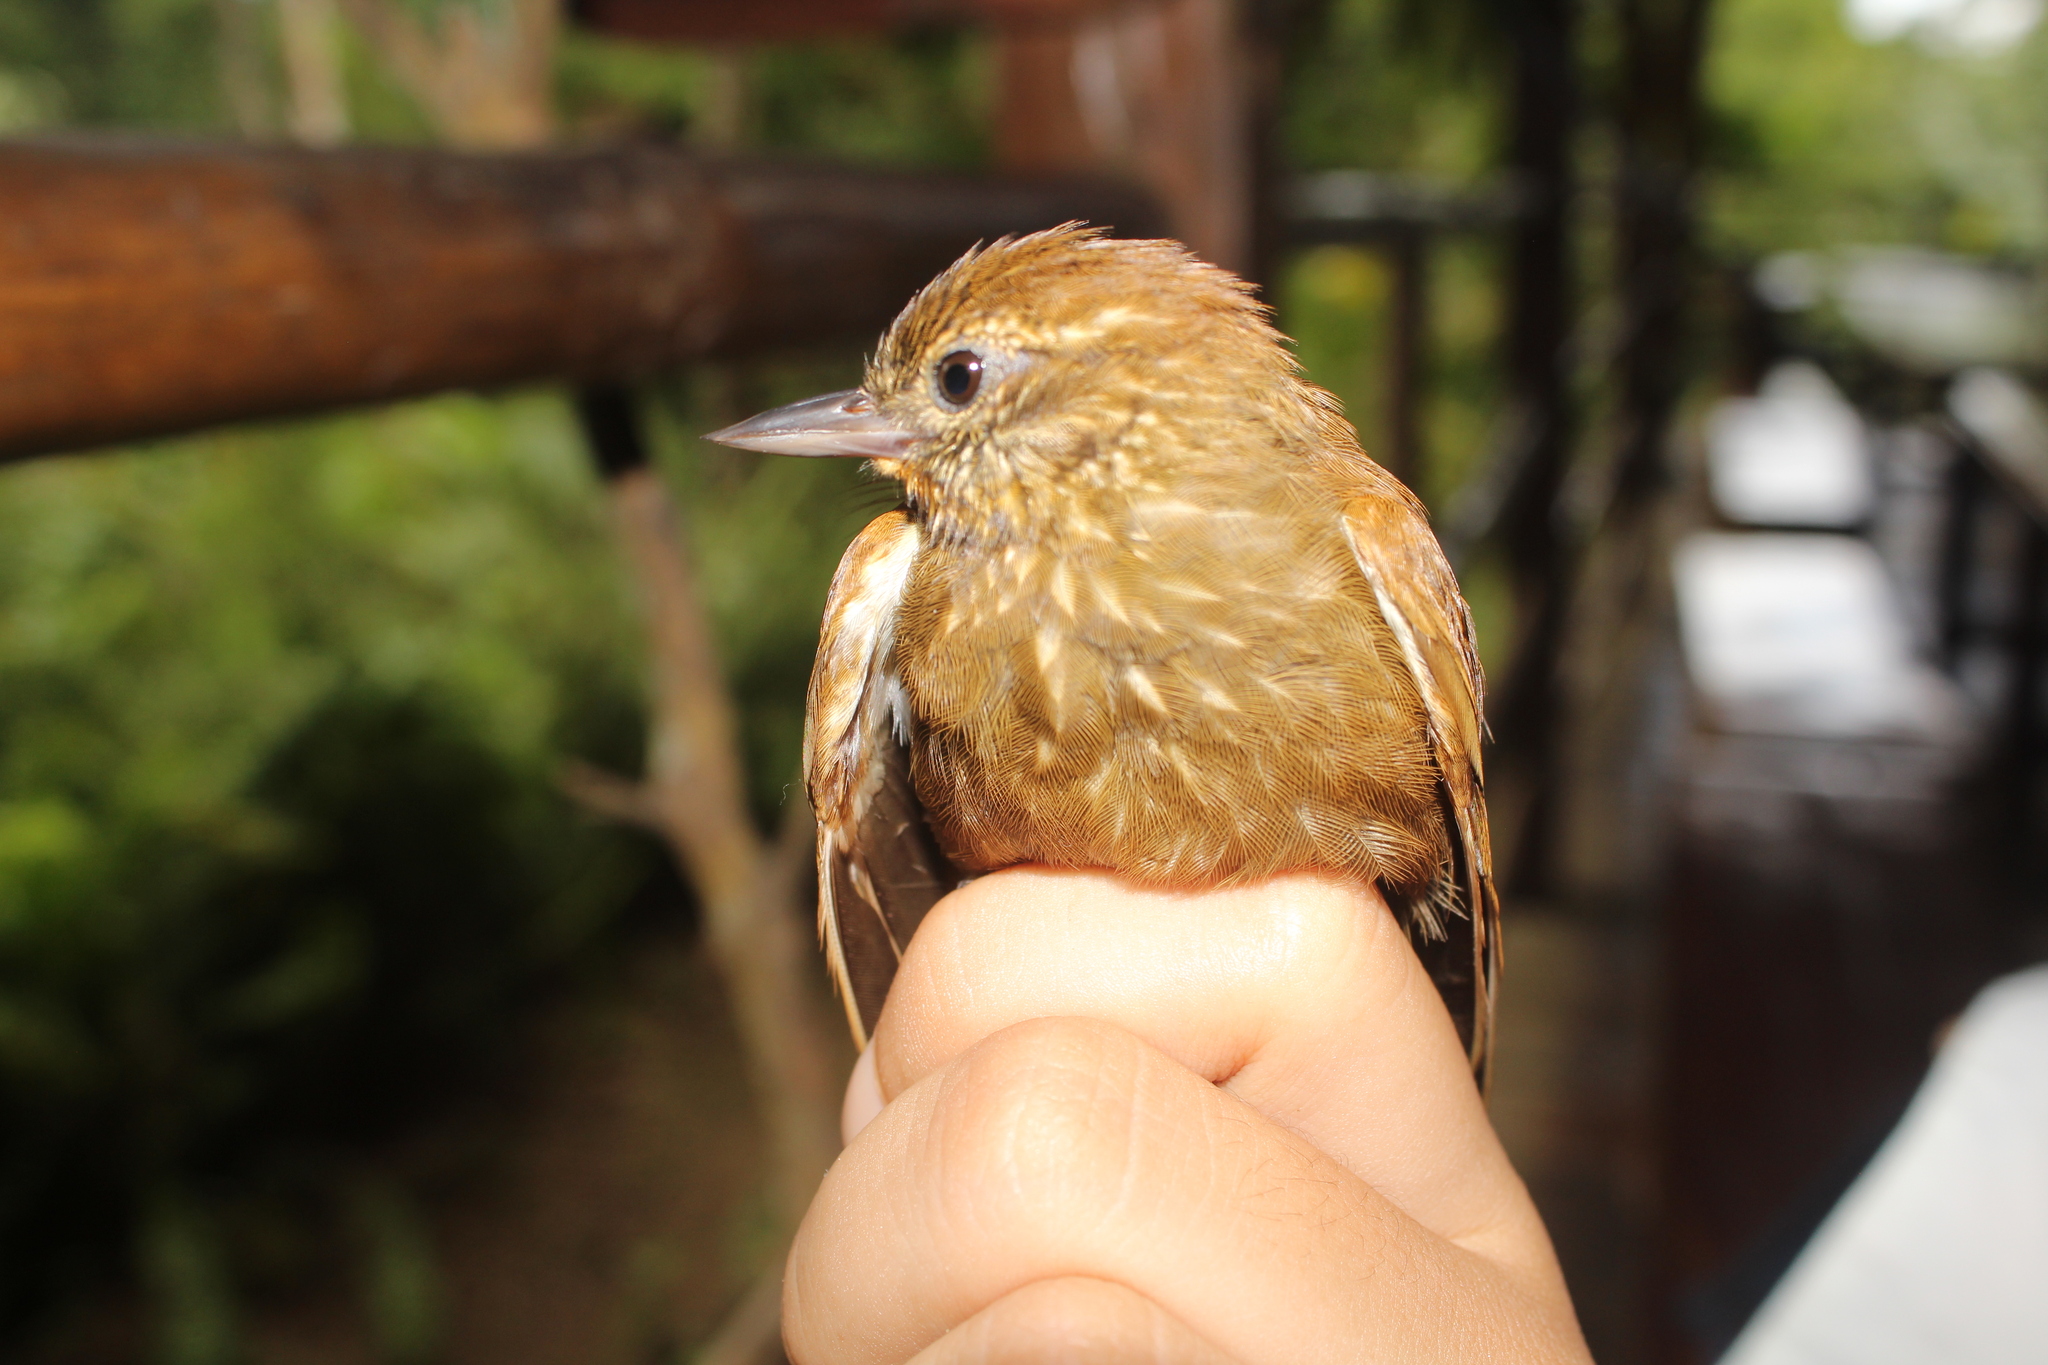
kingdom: Animalia
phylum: Chordata
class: Aves
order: Passeriformes
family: Furnariidae
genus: Xenops
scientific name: Xenops minutus
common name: Plain xenops
